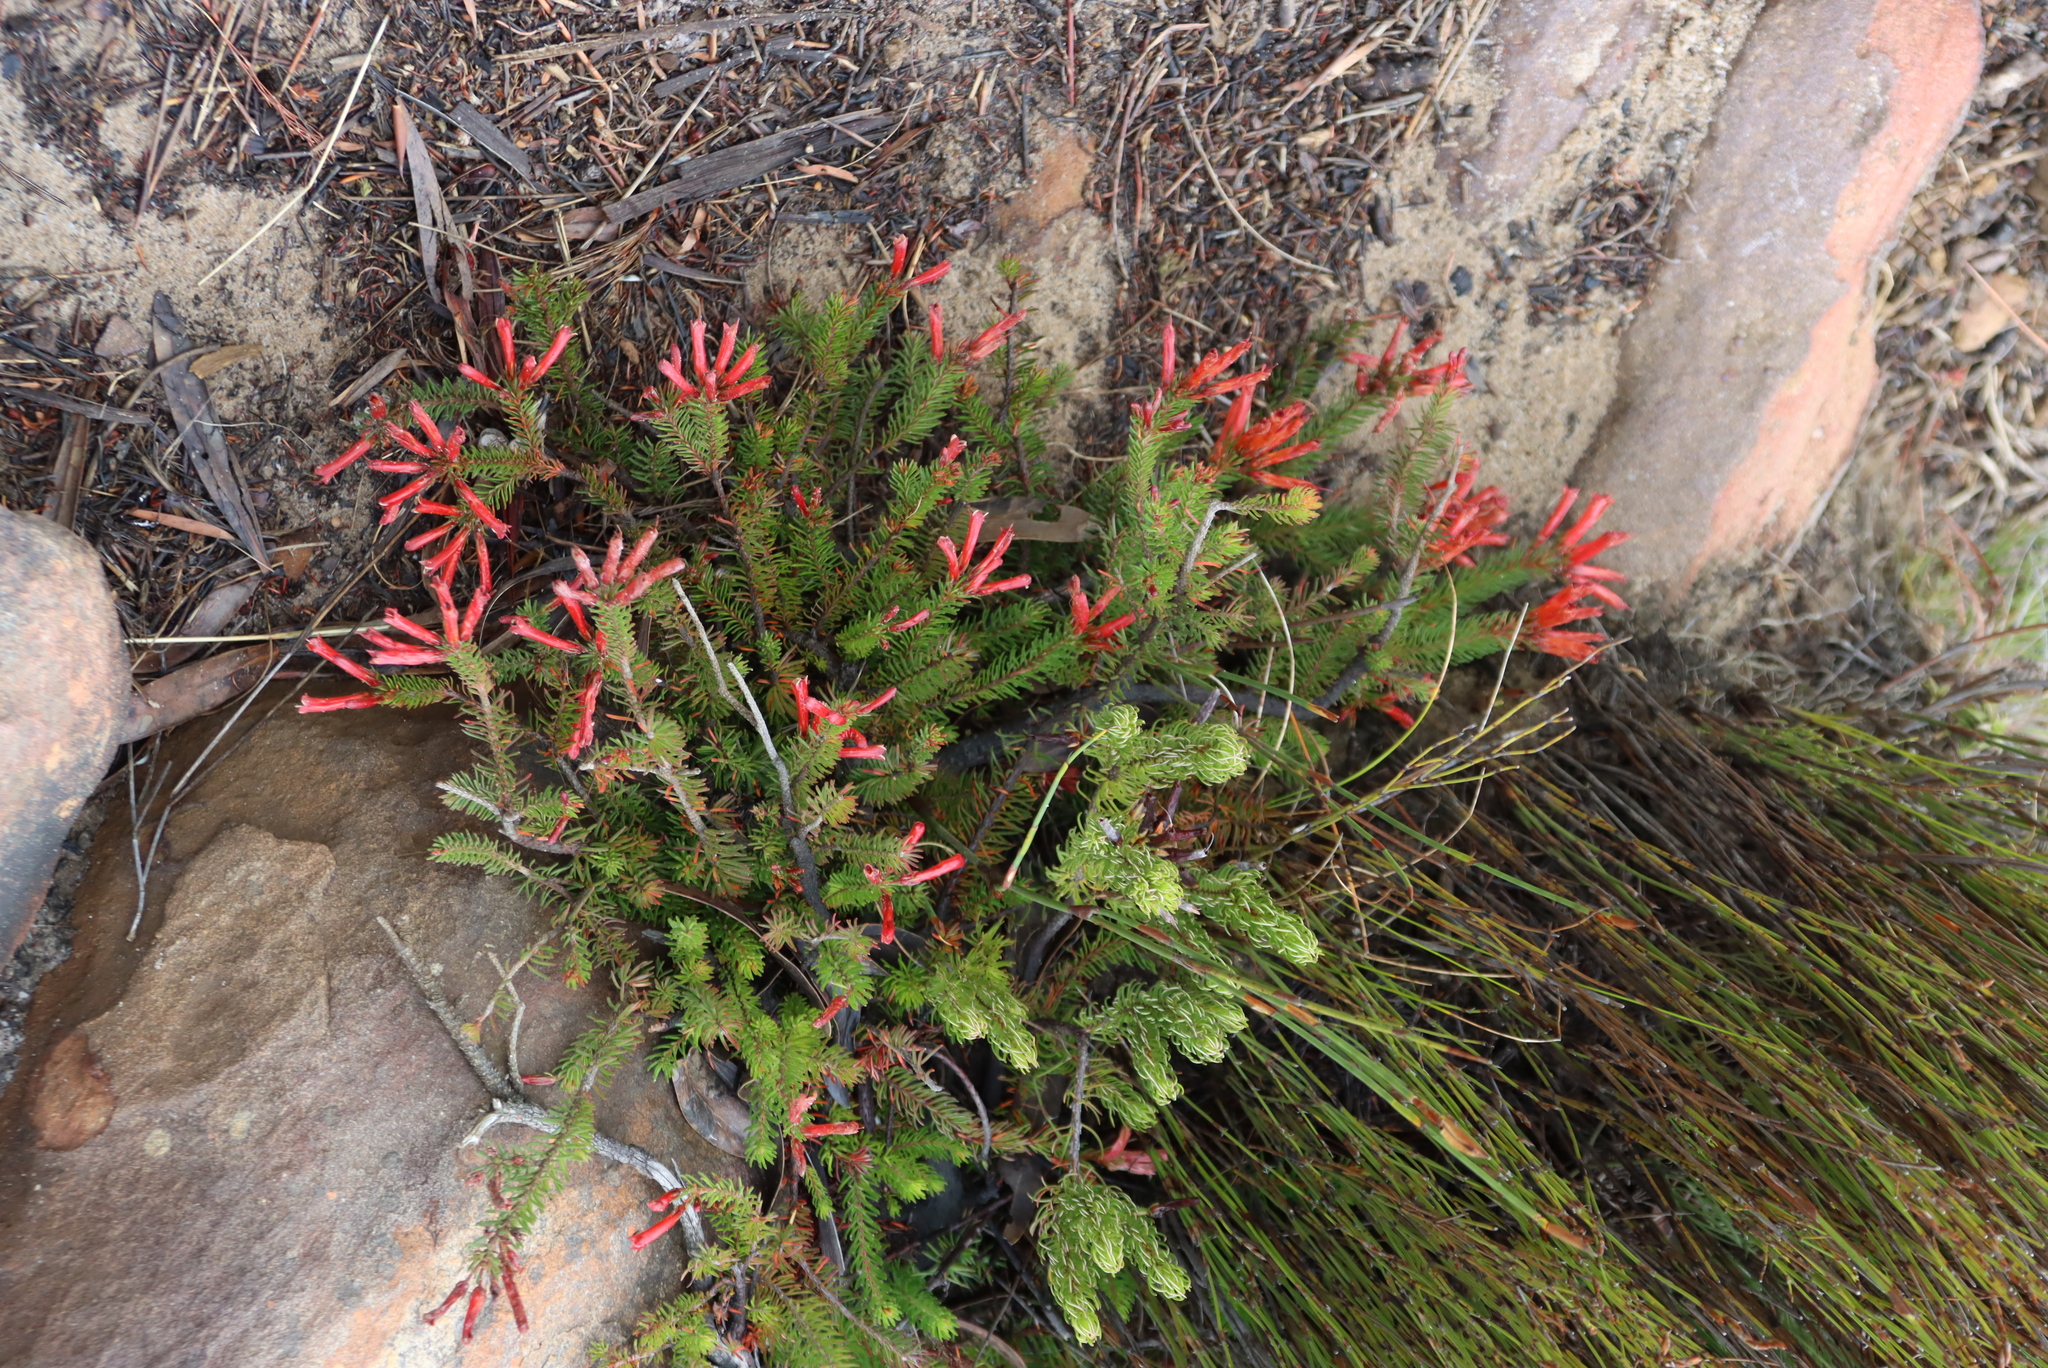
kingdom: Plantae
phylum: Tracheophyta
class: Magnoliopsida
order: Ericales
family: Ericaceae
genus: Erica
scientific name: Erica nevillei
